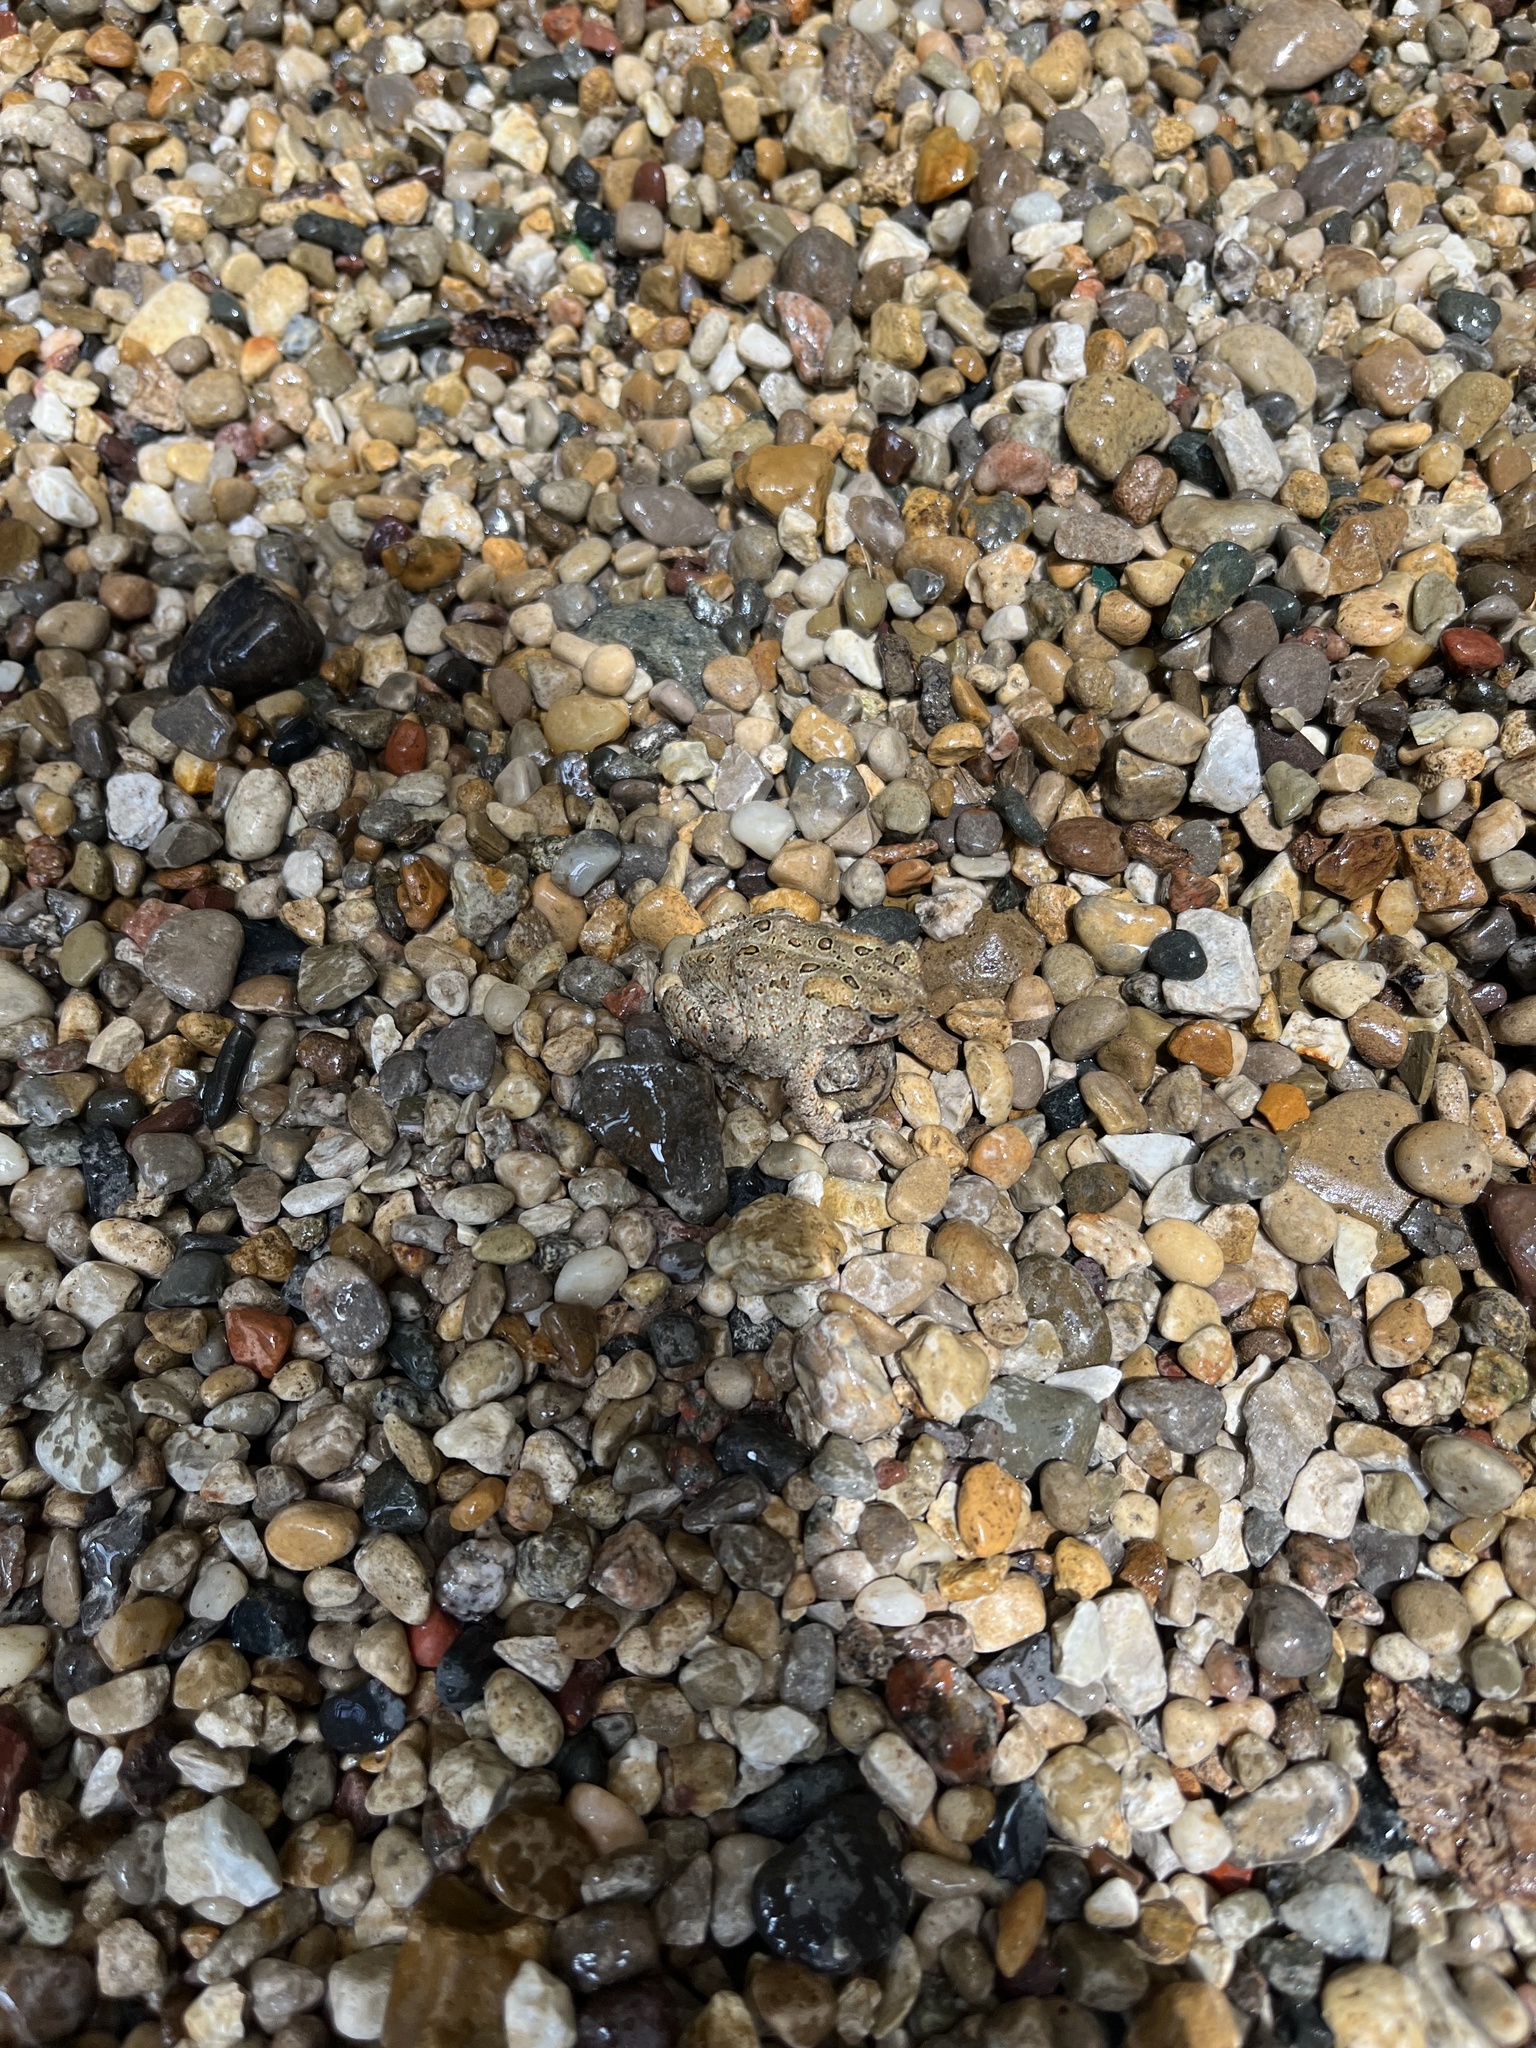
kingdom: Animalia
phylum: Chordata
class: Amphibia
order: Anura
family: Bufonidae
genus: Anaxyrus
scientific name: Anaxyrus americanus
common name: American toad
